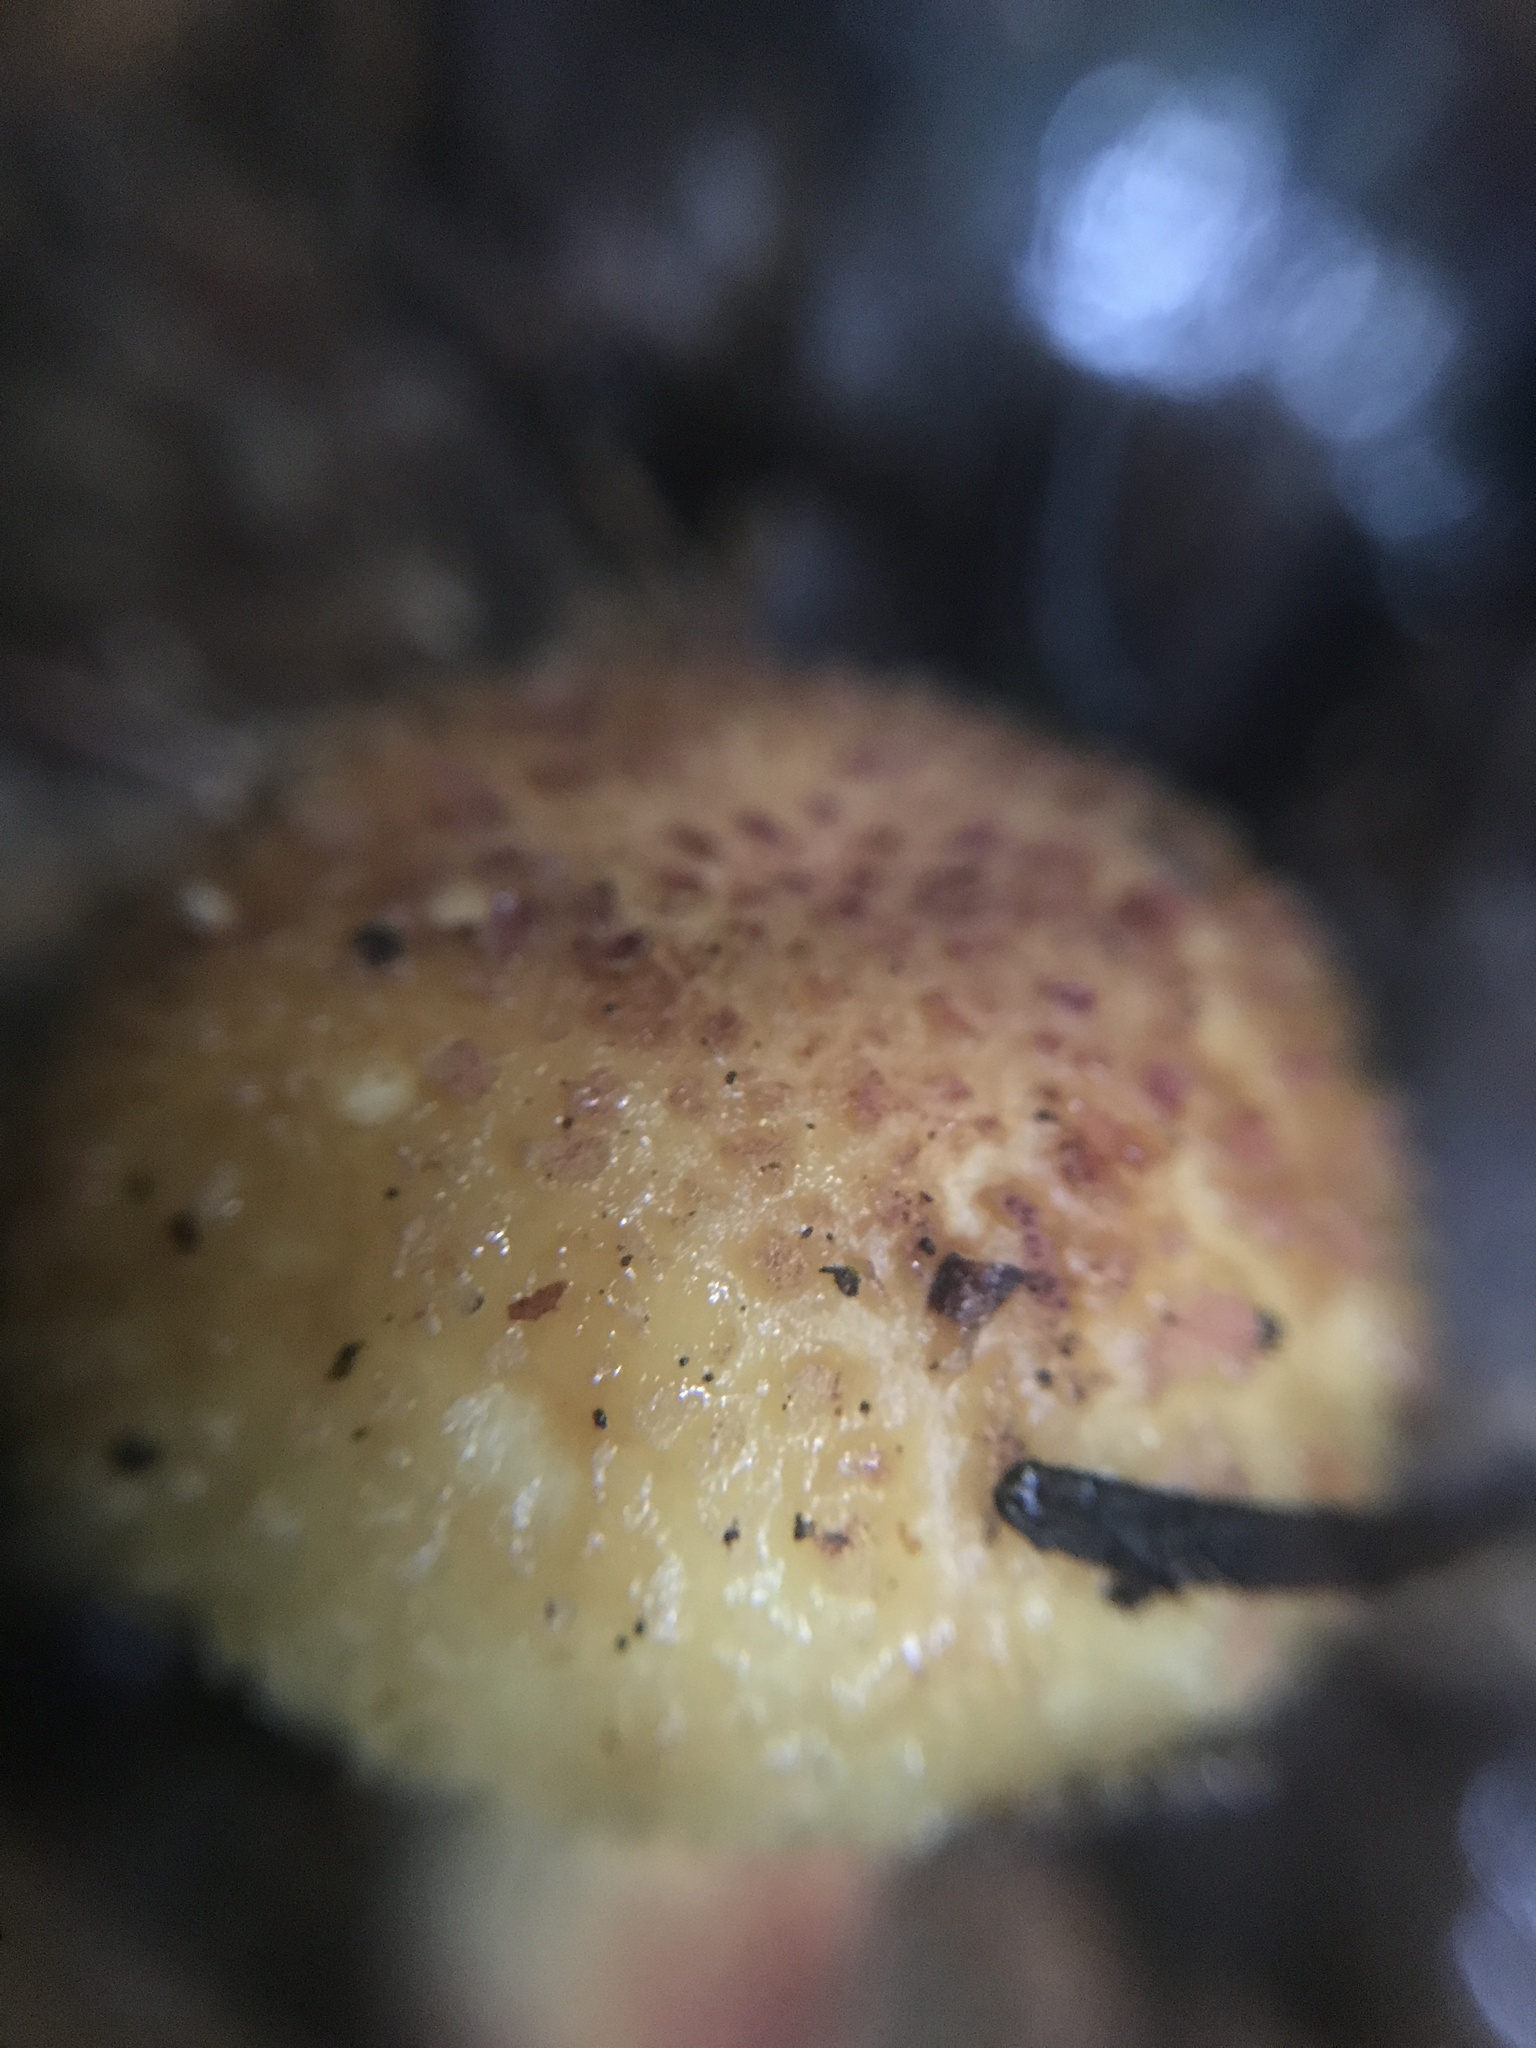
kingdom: Fungi
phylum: Basidiomycota
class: Agaricomycetes
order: Russulales
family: Russulaceae
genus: Russula
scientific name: Russula granulata
